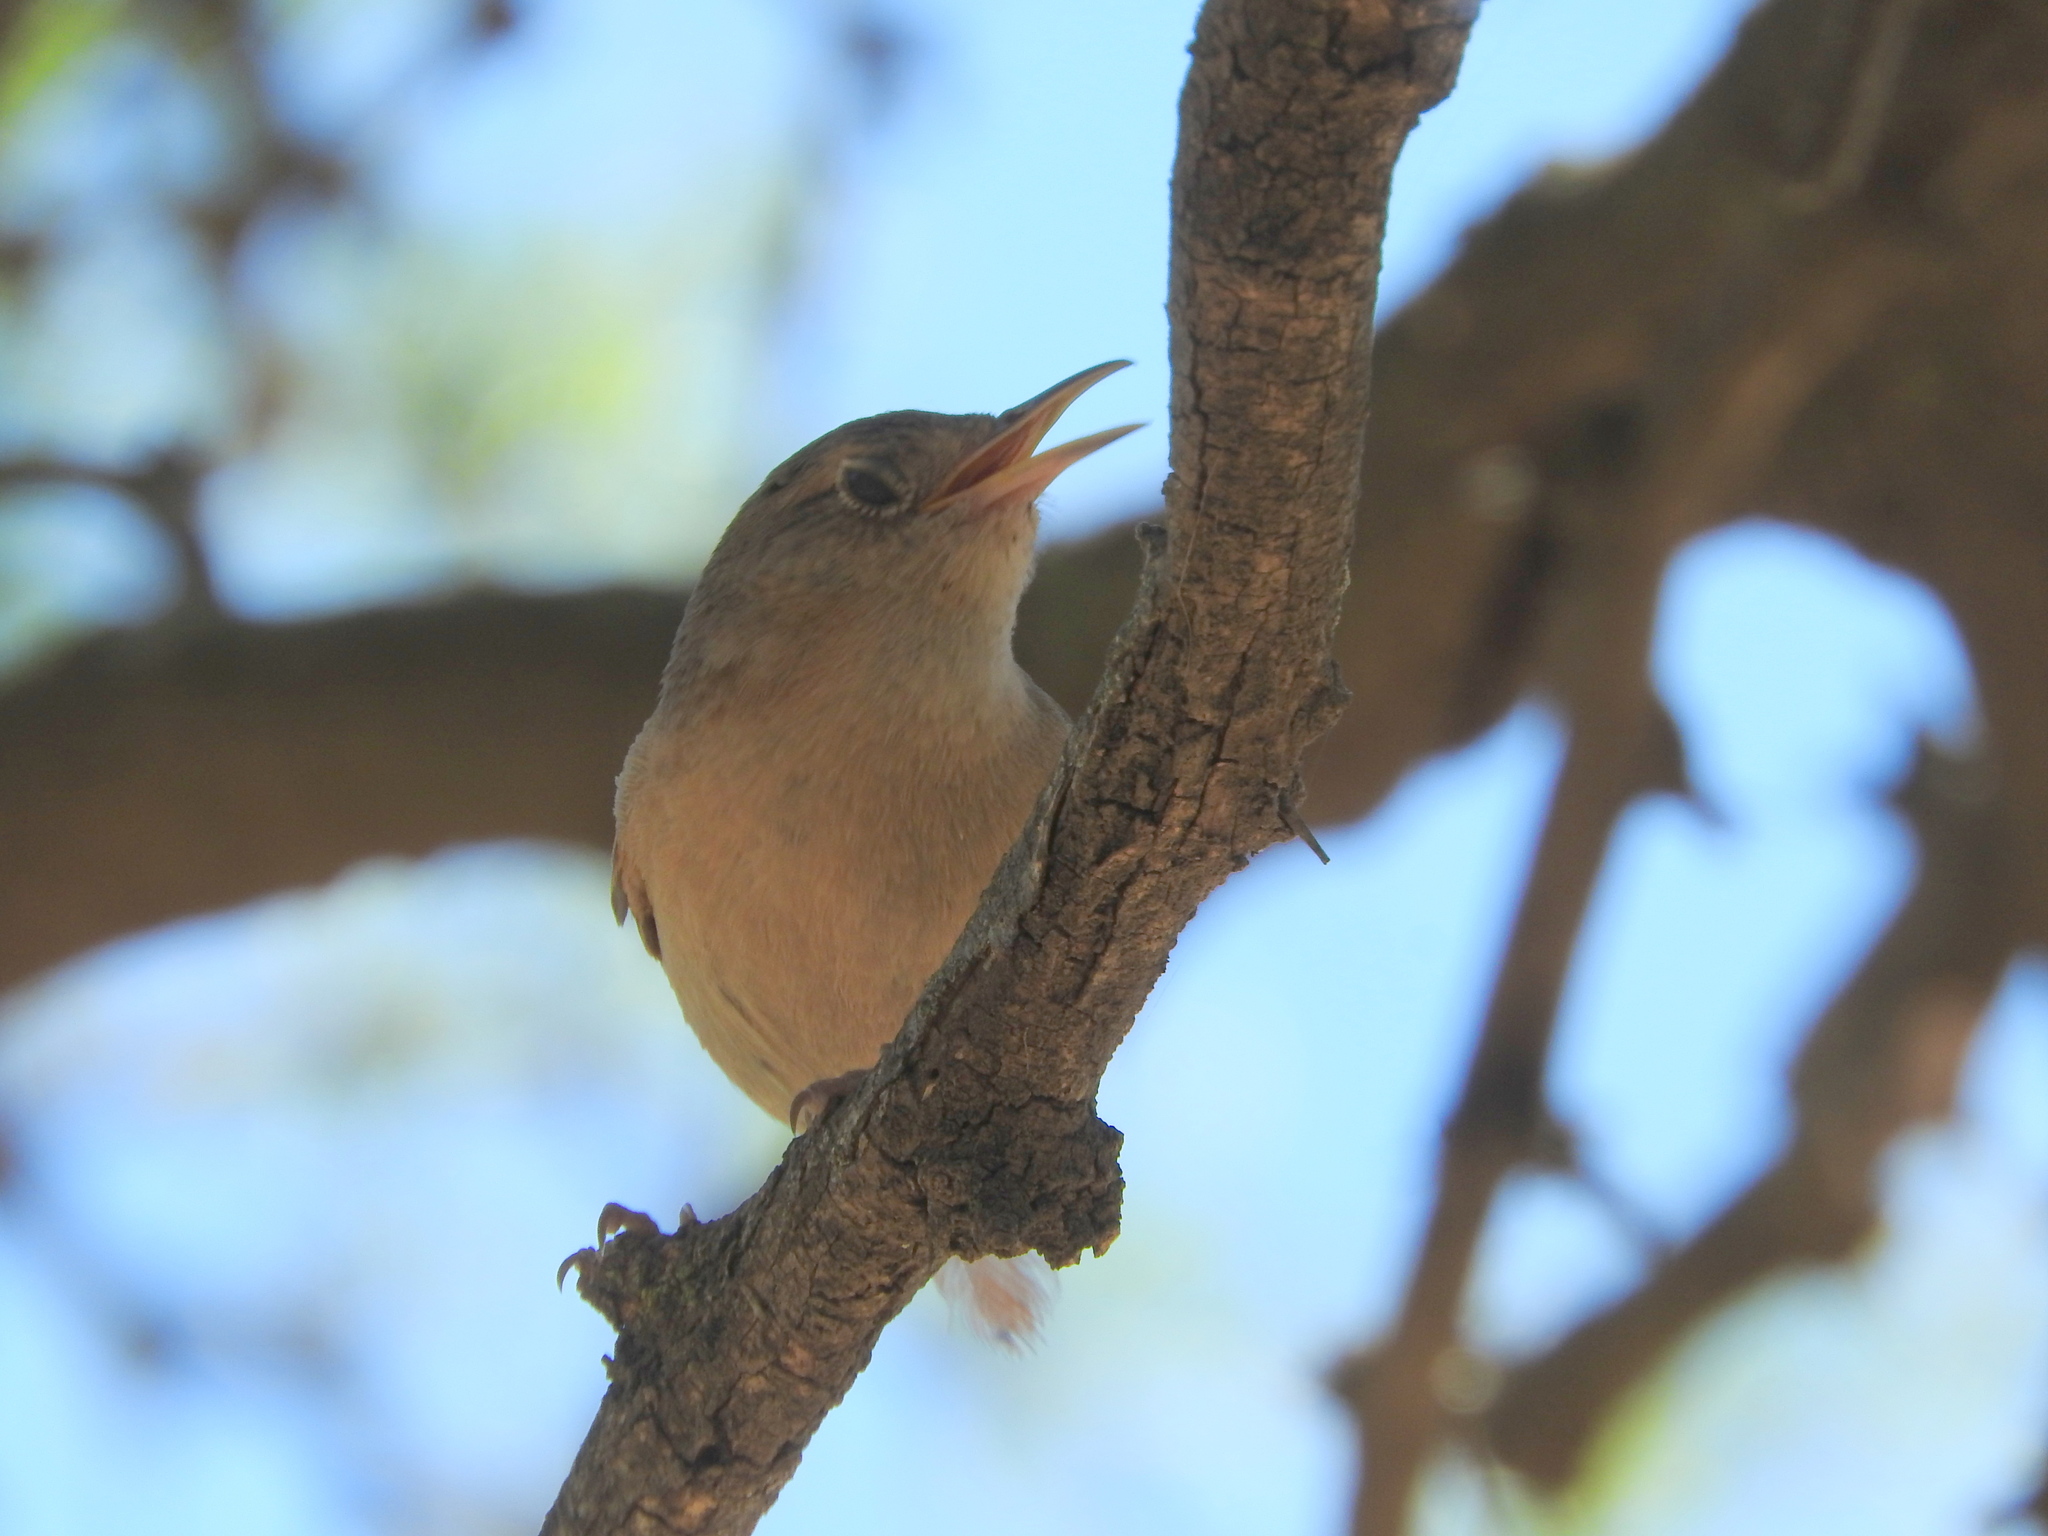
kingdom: Animalia
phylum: Chordata
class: Aves
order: Passeriformes
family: Troglodytidae
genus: Troglodytes
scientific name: Troglodytes aedon
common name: House wren
